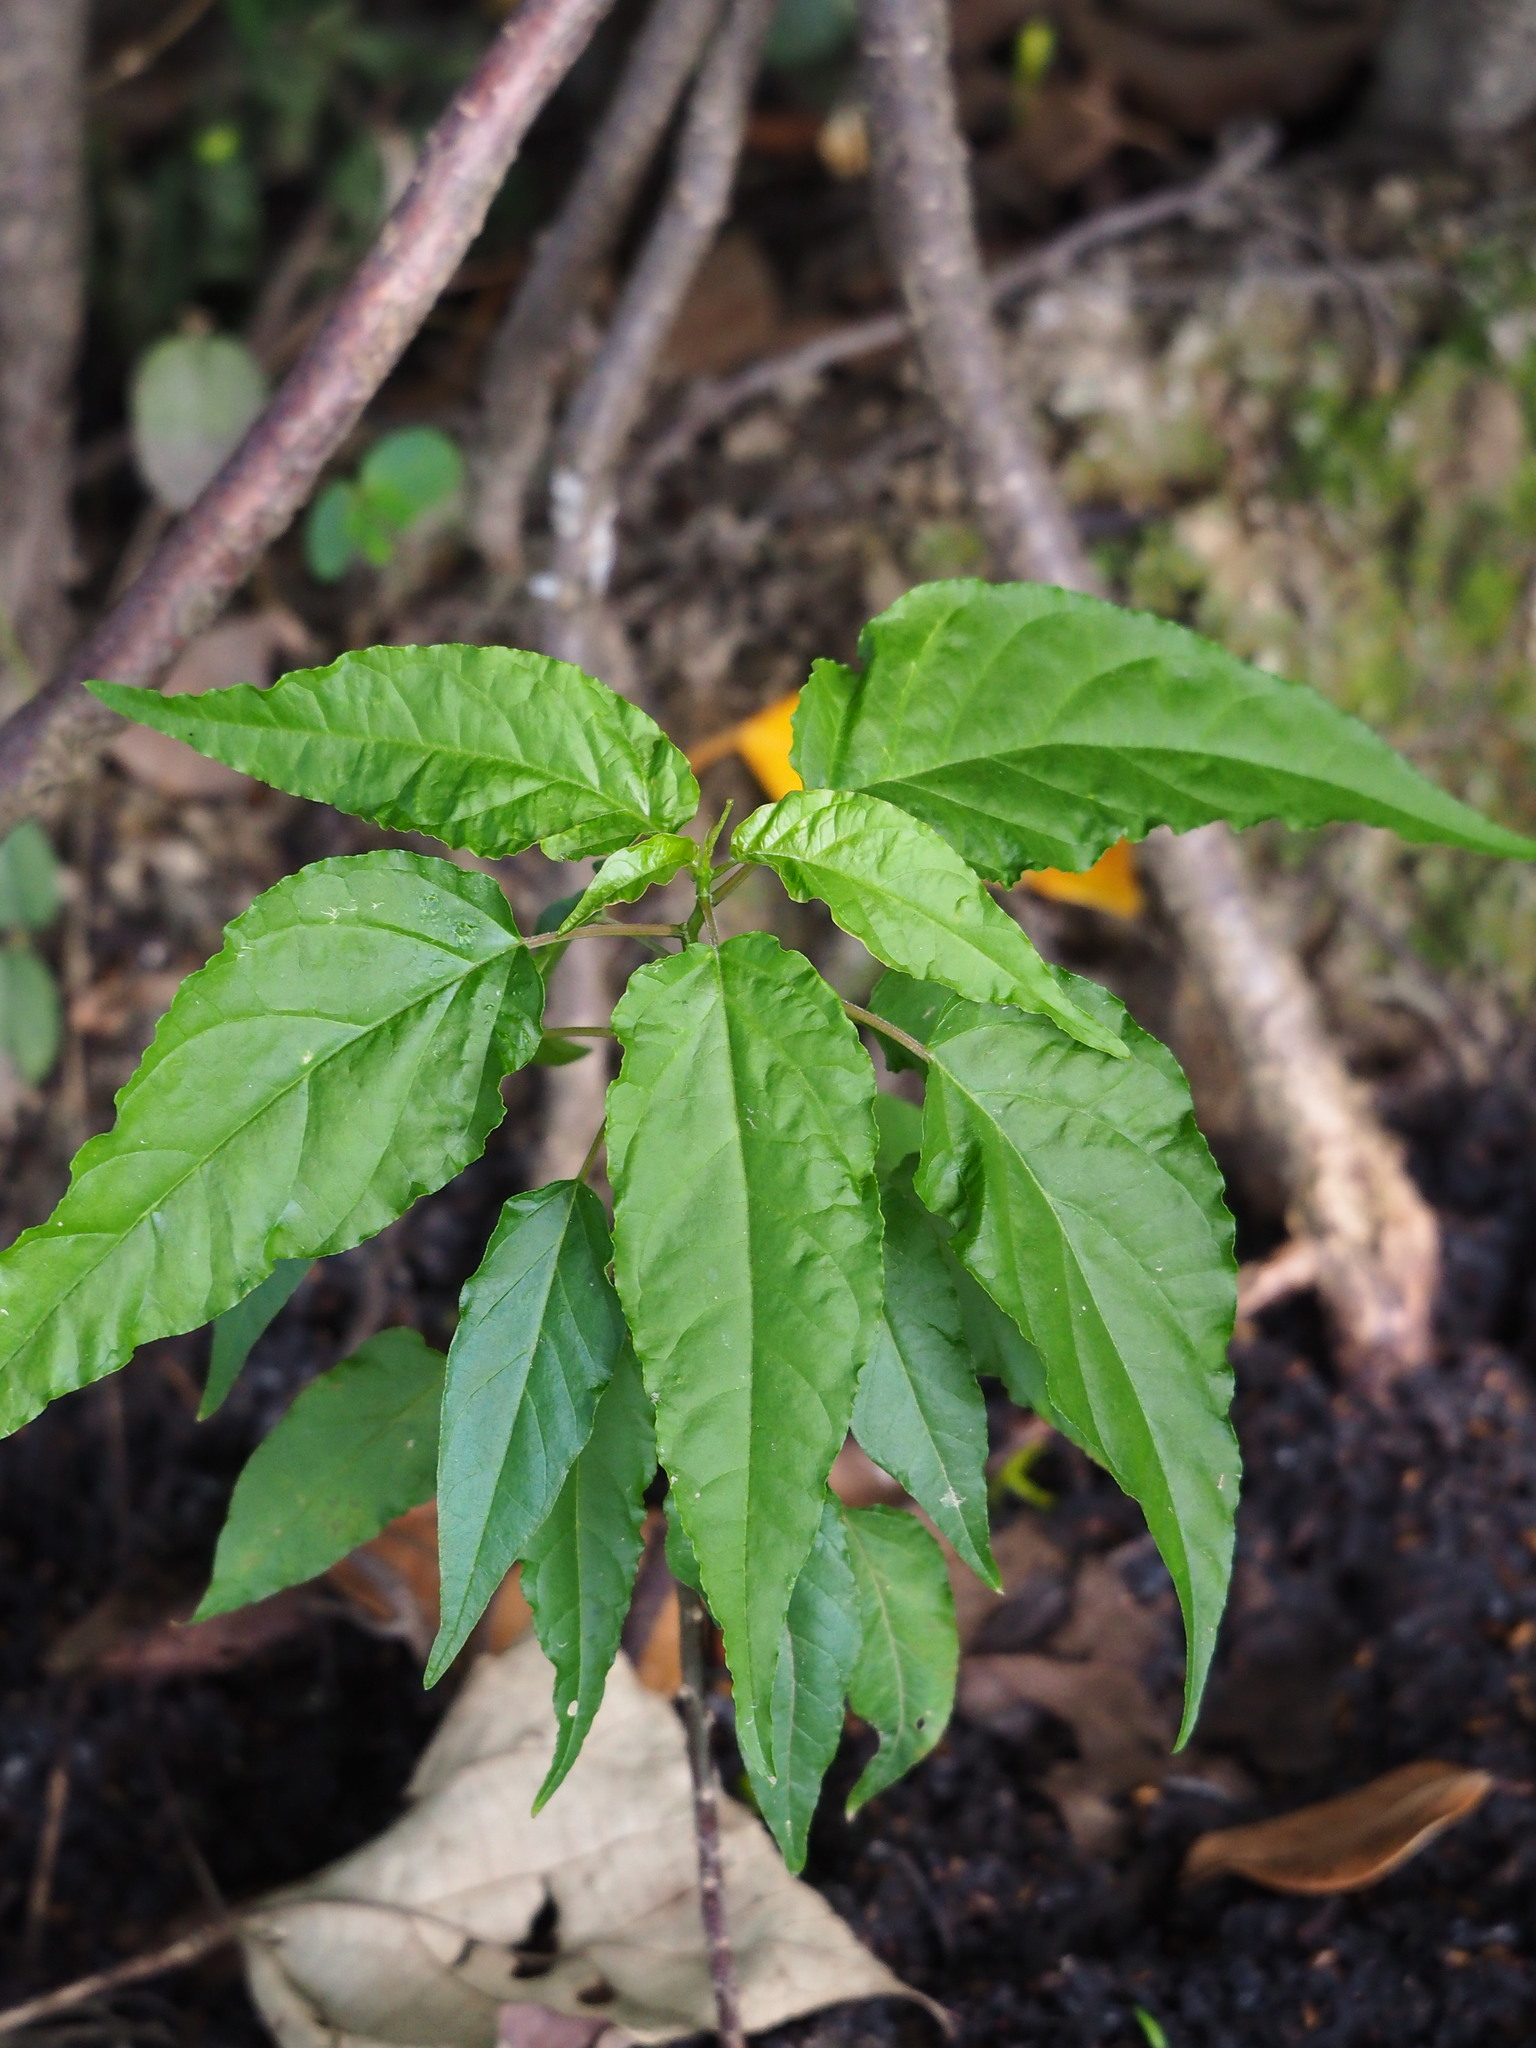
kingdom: Plantae
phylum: Tracheophyta
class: Magnoliopsida
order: Caryophyllales
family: Phytolaccaceae
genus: Rivina
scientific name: Rivina humilis
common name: Rougeplant
